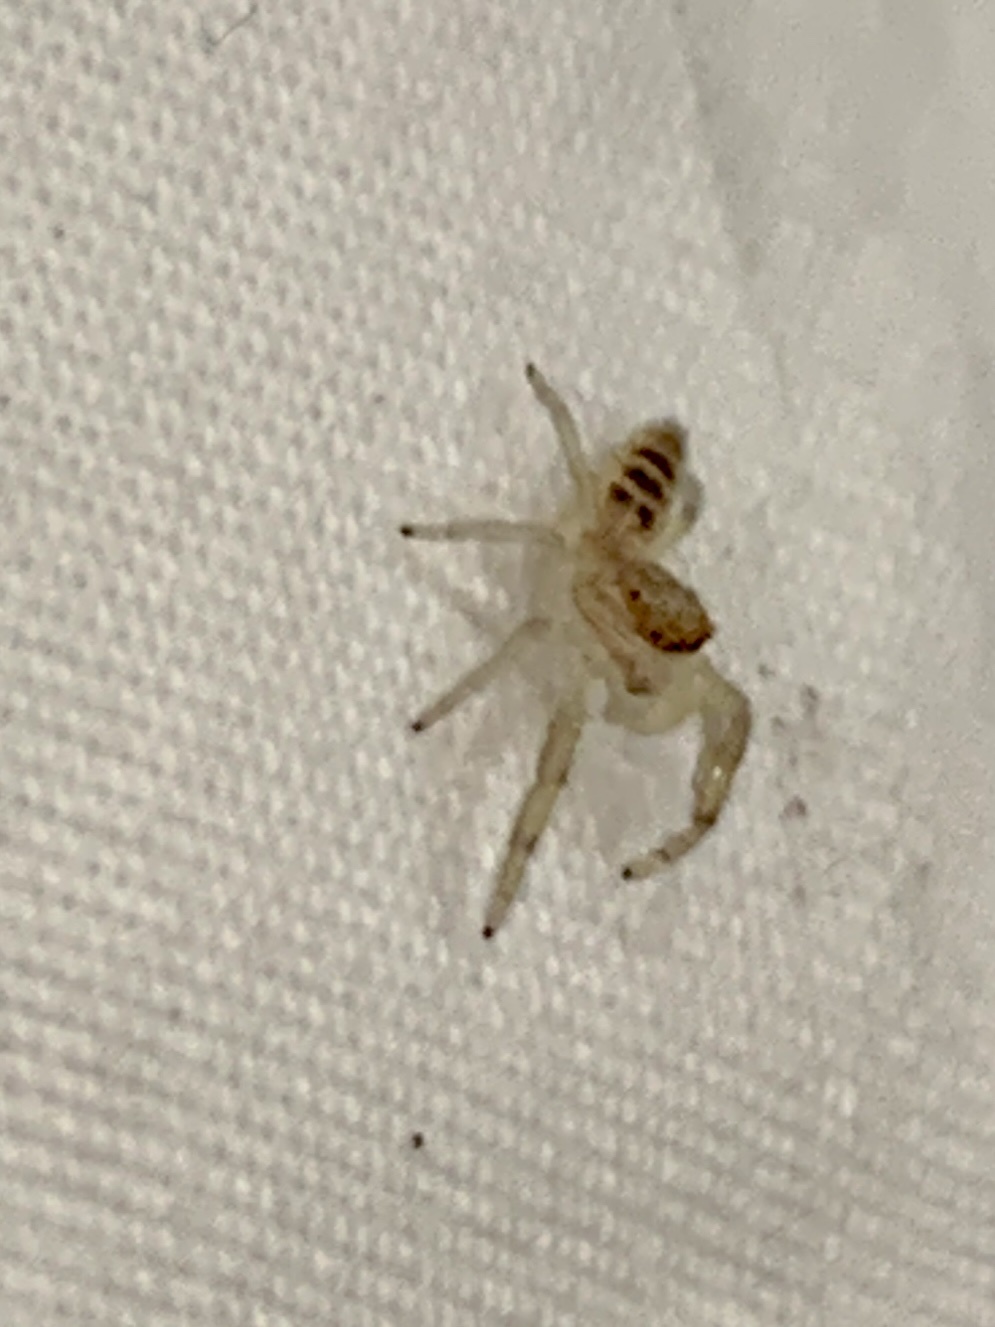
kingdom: Animalia
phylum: Arthropoda
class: Arachnida
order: Araneae
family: Salticidae
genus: Hentzia
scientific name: Hentzia mitrata
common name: White-jawed jumping spider
